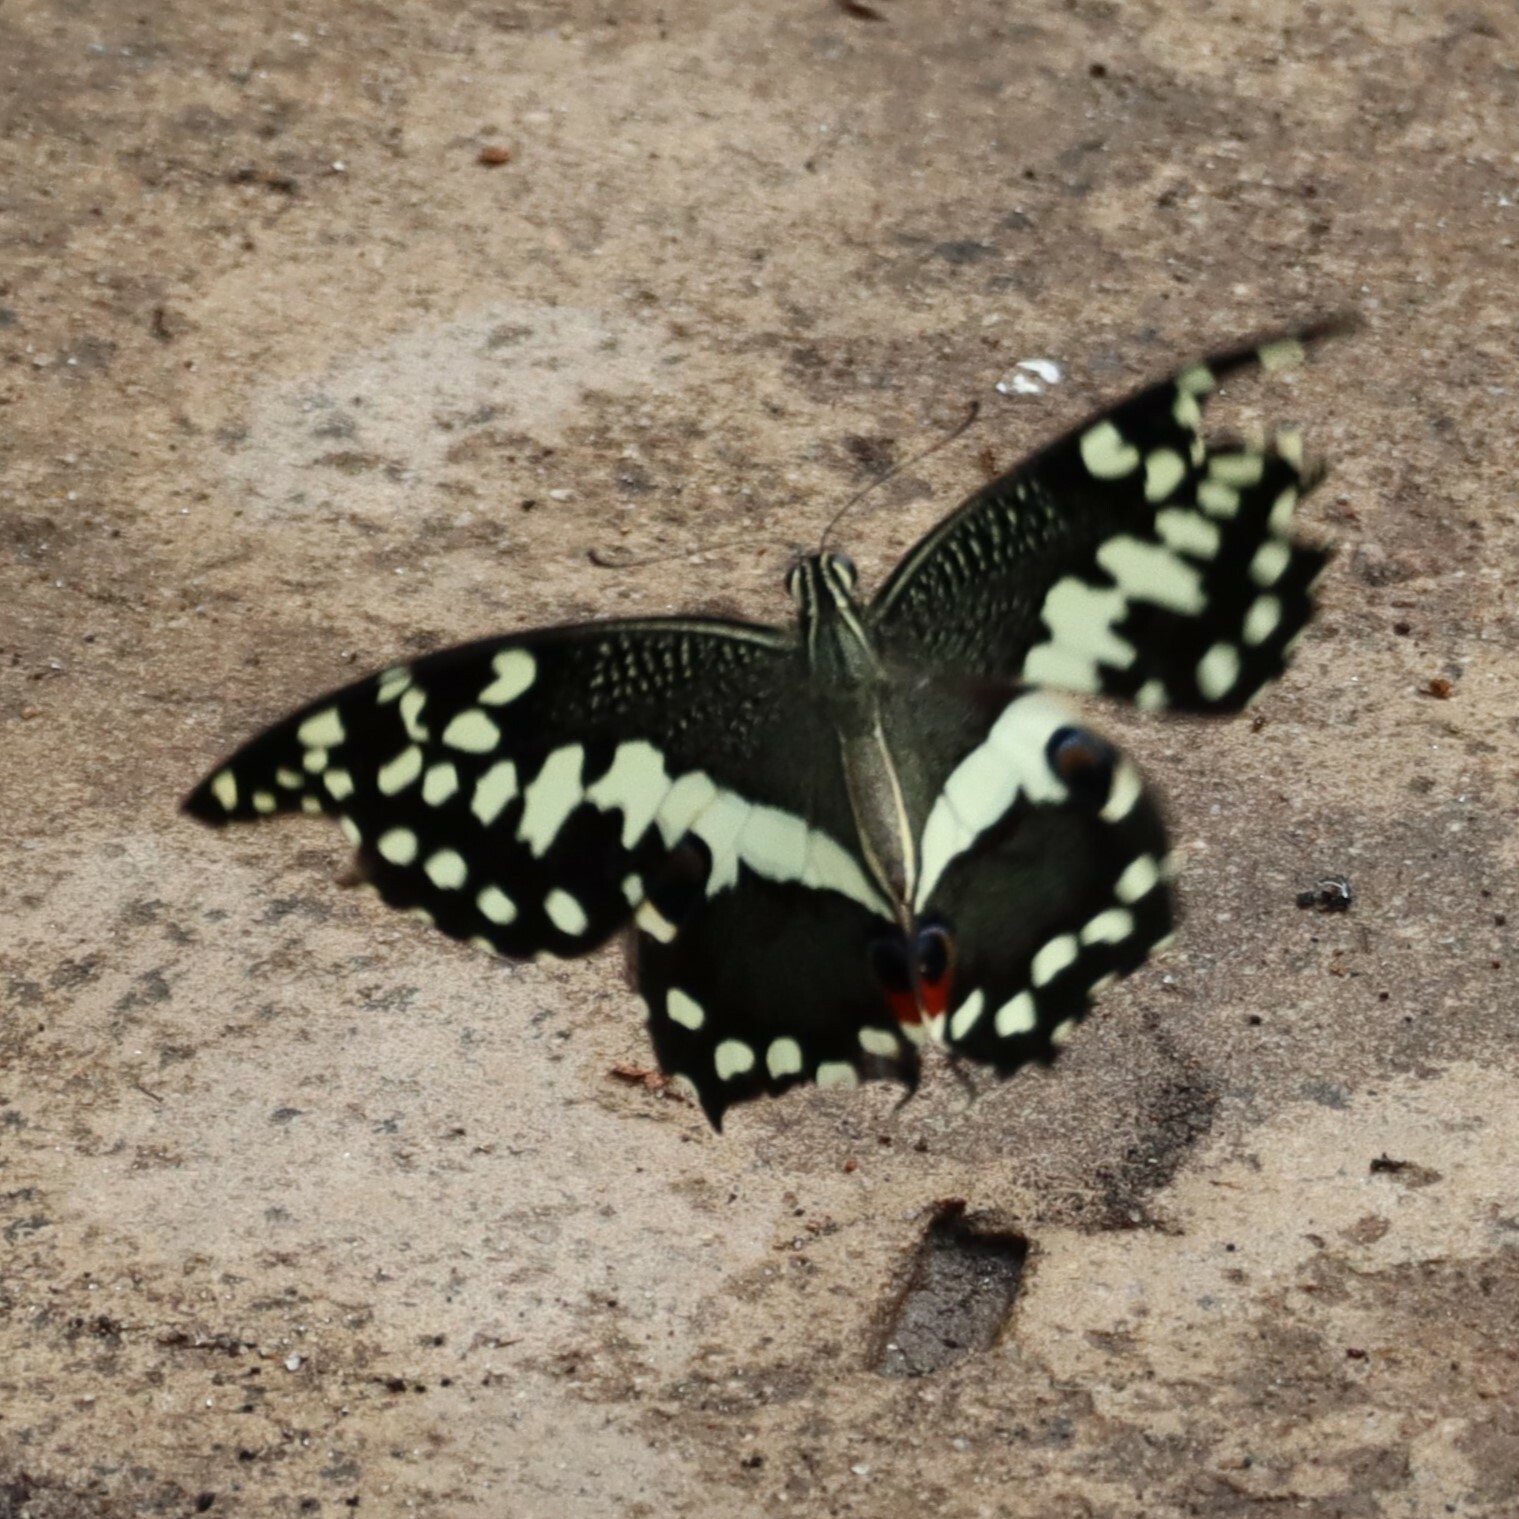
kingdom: Animalia
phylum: Arthropoda
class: Insecta
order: Lepidoptera
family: Papilionidae
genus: Papilio
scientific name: Papilio demodocus
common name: Christmas butterfly
